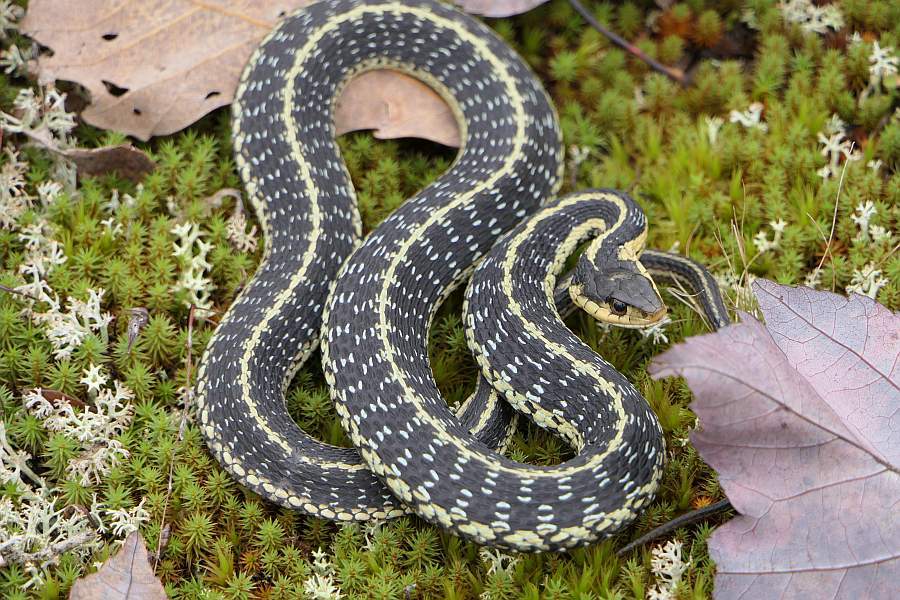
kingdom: Animalia
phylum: Chordata
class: Squamata
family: Colubridae
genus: Thamnophis
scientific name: Thamnophis sirtalis
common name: Common garter snake
